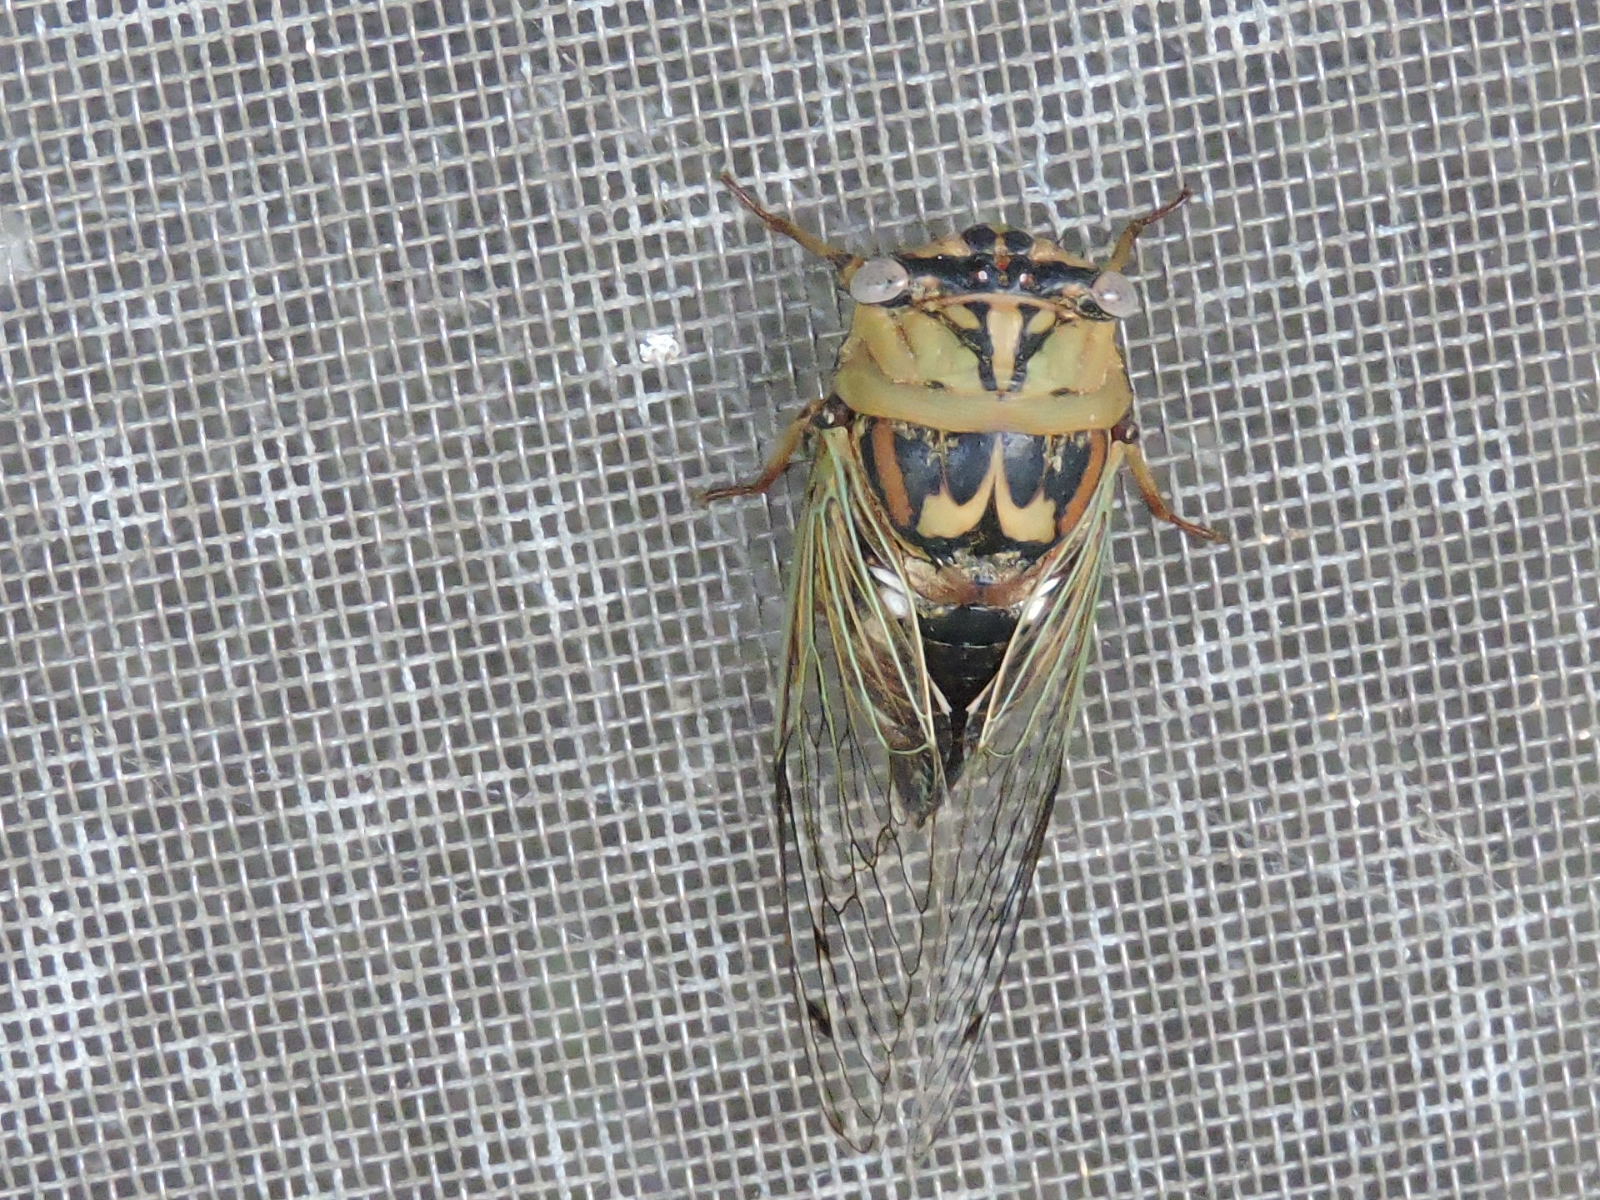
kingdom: Animalia
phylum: Arthropoda
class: Insecta
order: Hemiptera
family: Cicadidae
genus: Megatibicen
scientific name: Megatibicen resh
